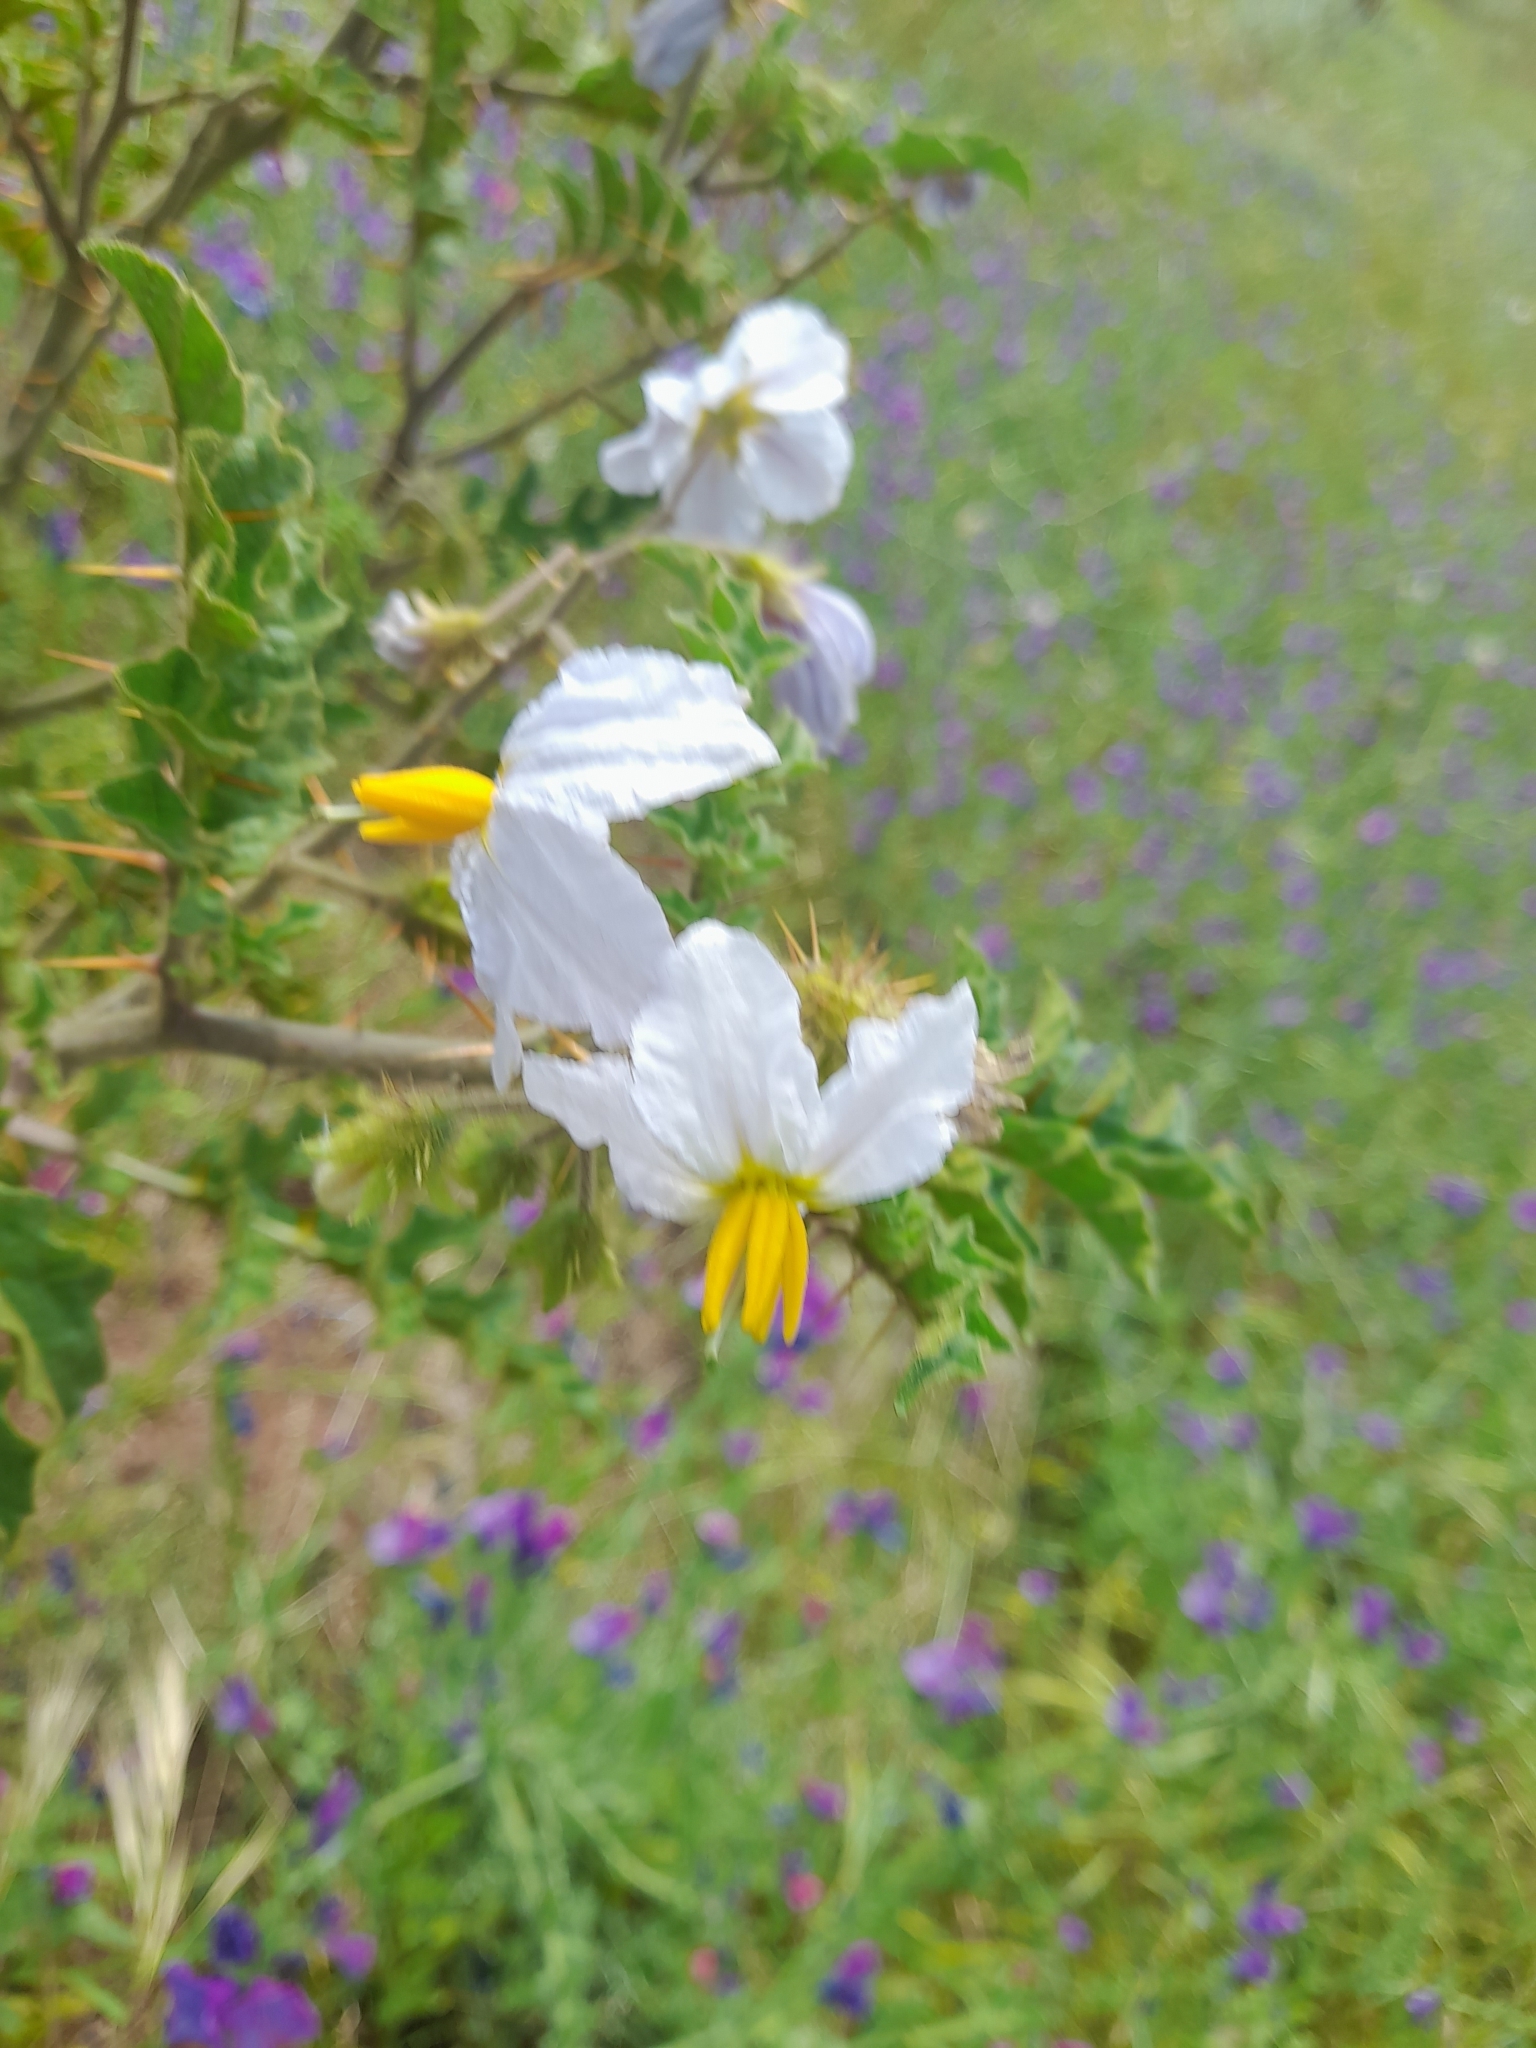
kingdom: Plantae
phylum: Tracheophyta
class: Magnoliopsida
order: Solanales
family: Solanaceae
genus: Solanum
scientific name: Solanum sisymbriifolium
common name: Red buffalo-bur
